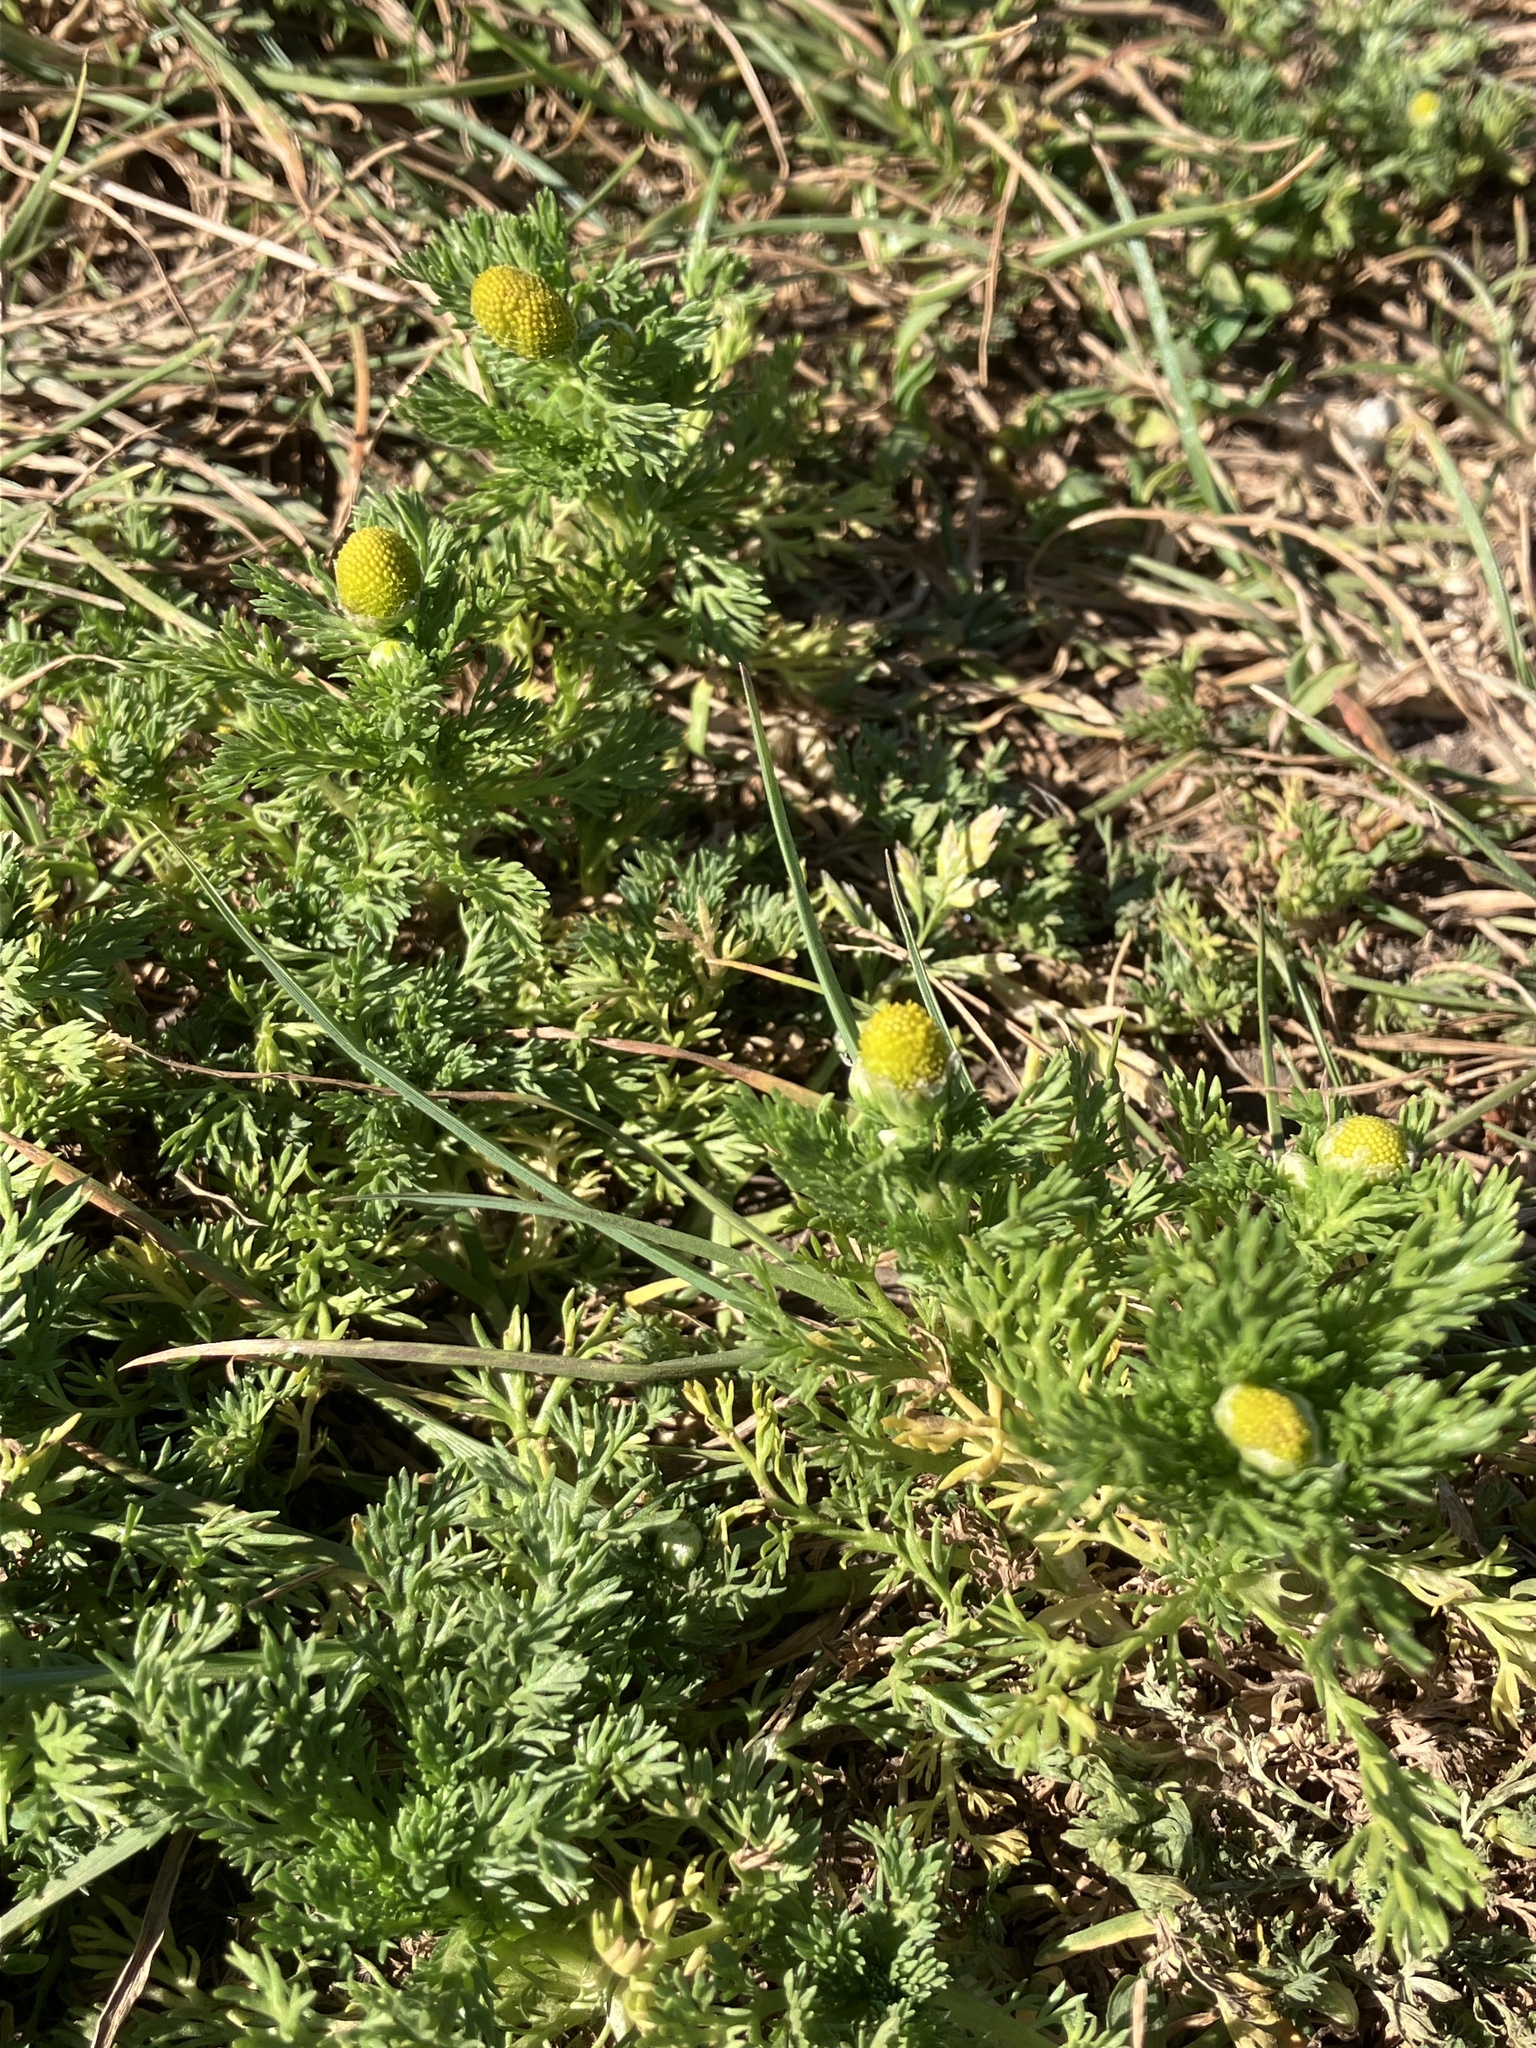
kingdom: Plantae
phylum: Tracheophyta
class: Magnoliopsida
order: Asterales
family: Asteraceae
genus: Matricaria
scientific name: Matricaria discoidea
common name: Disc mayweed
